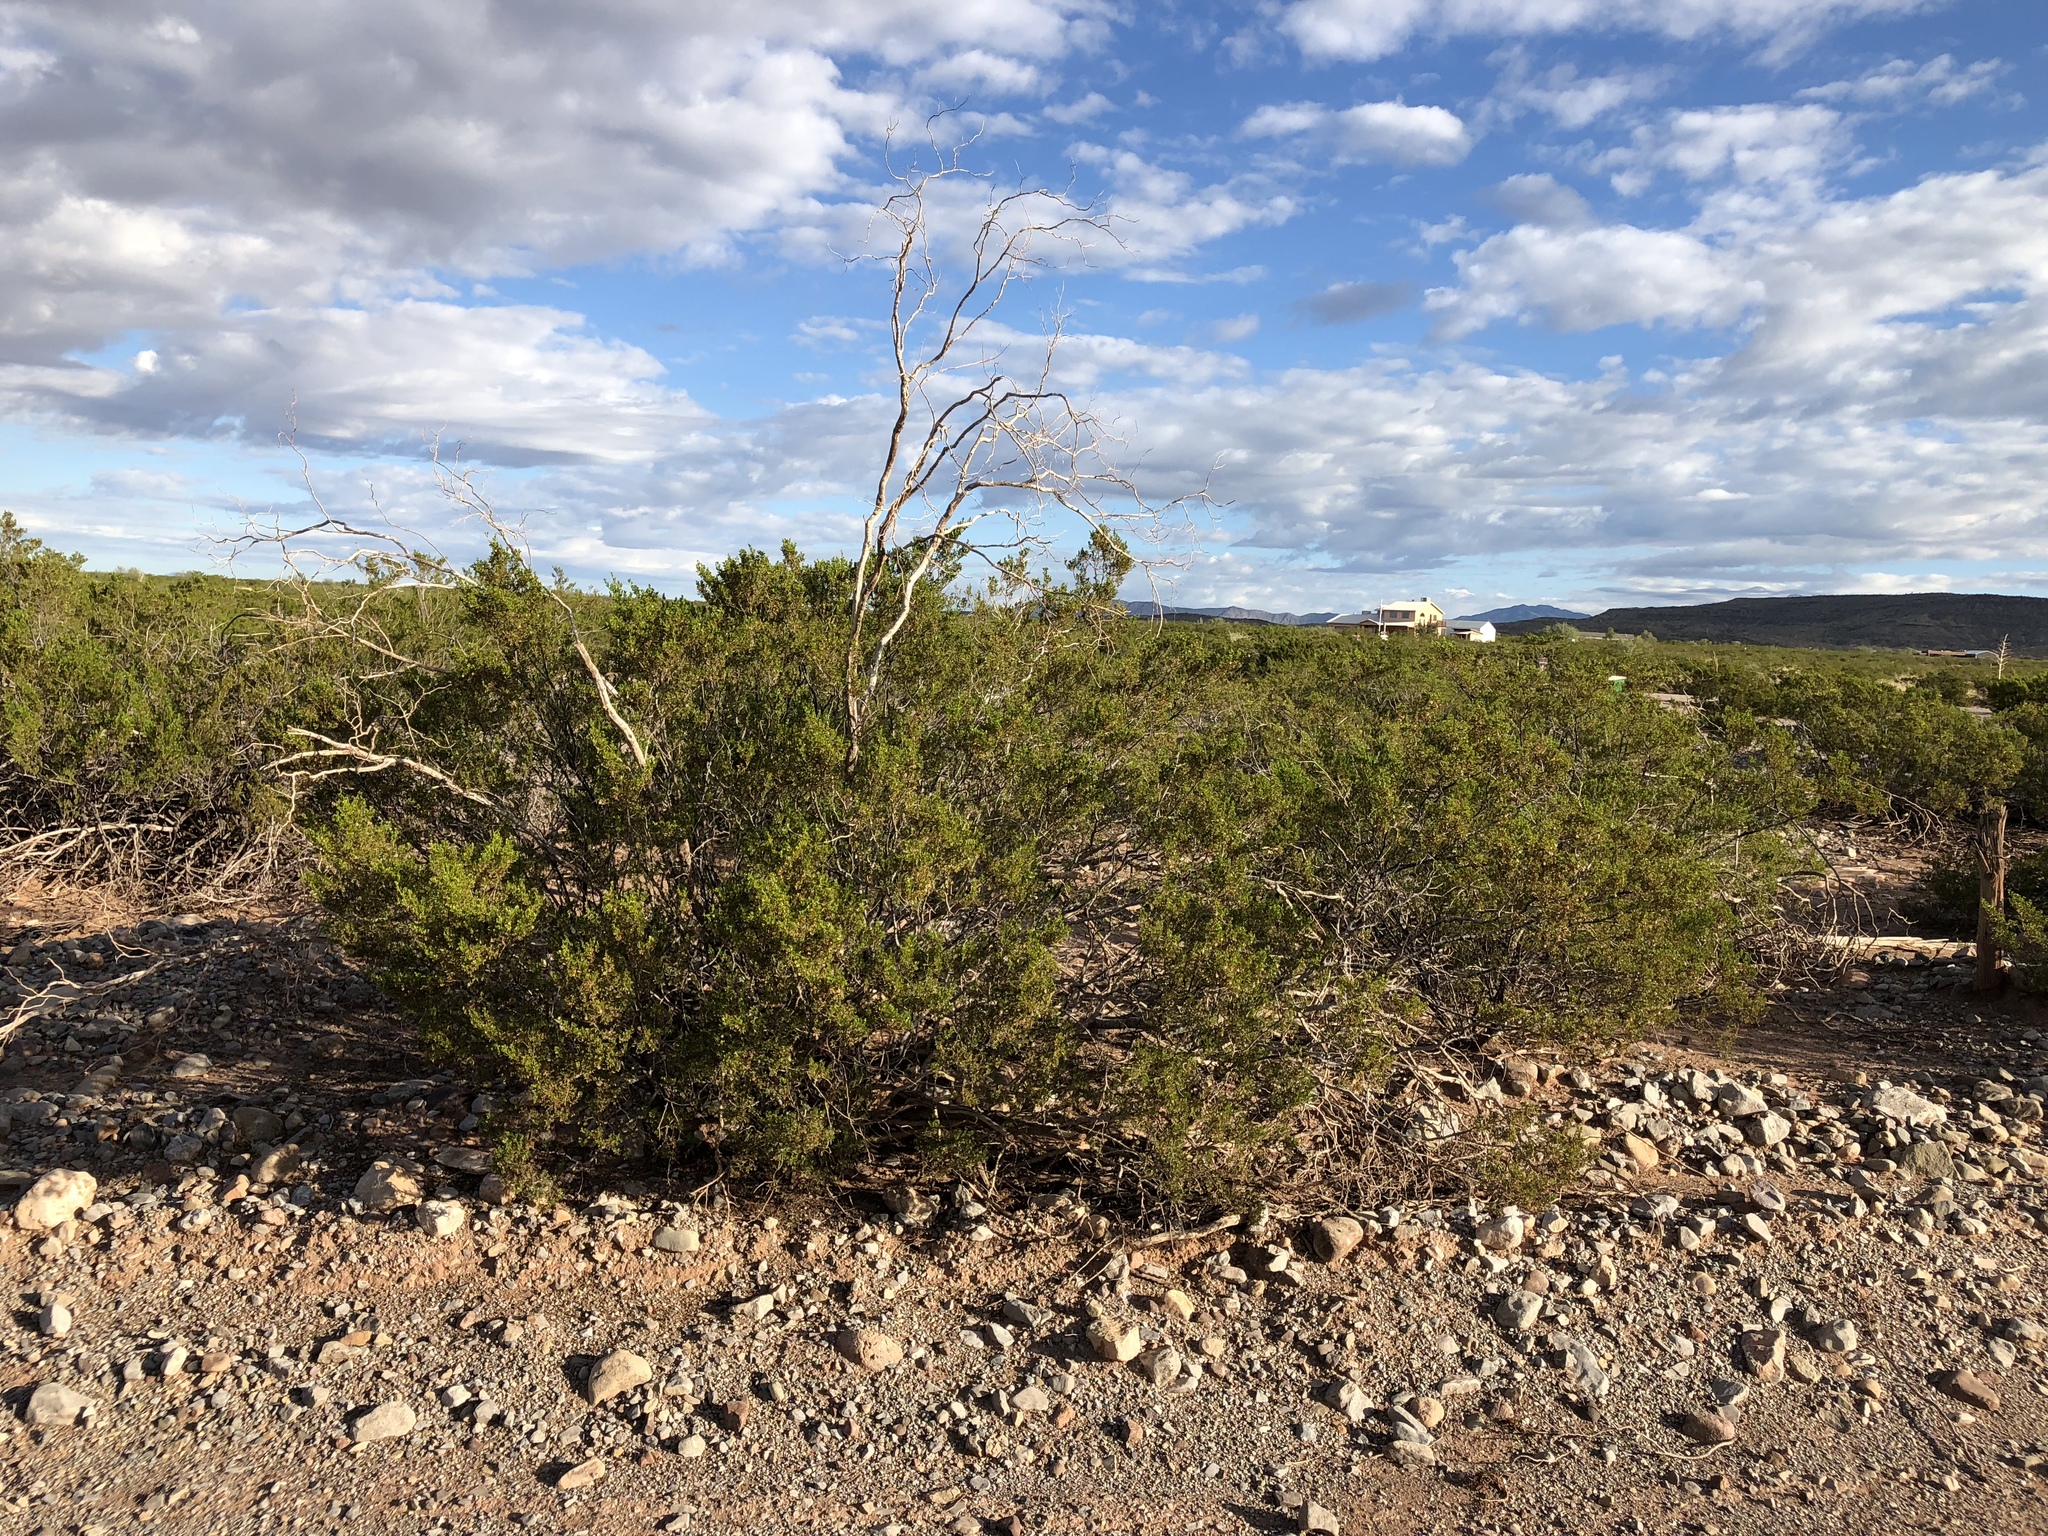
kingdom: Plantae
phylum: Tracheophyta
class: Magnoliopsida
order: Zygophyllales
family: Zygophyllaceae
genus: Larrea
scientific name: Larrea tridentata
